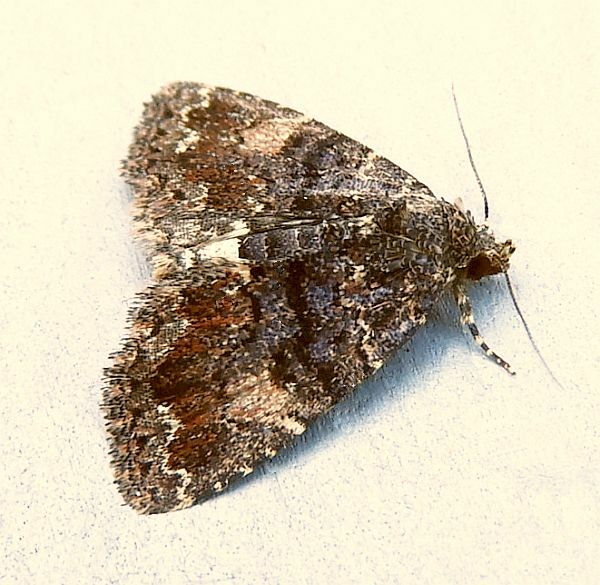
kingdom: Animalia
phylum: Arthropoda
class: Insecta
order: Lepidoptera
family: Erebidae
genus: Metalectra
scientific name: Metalectra richardsi
